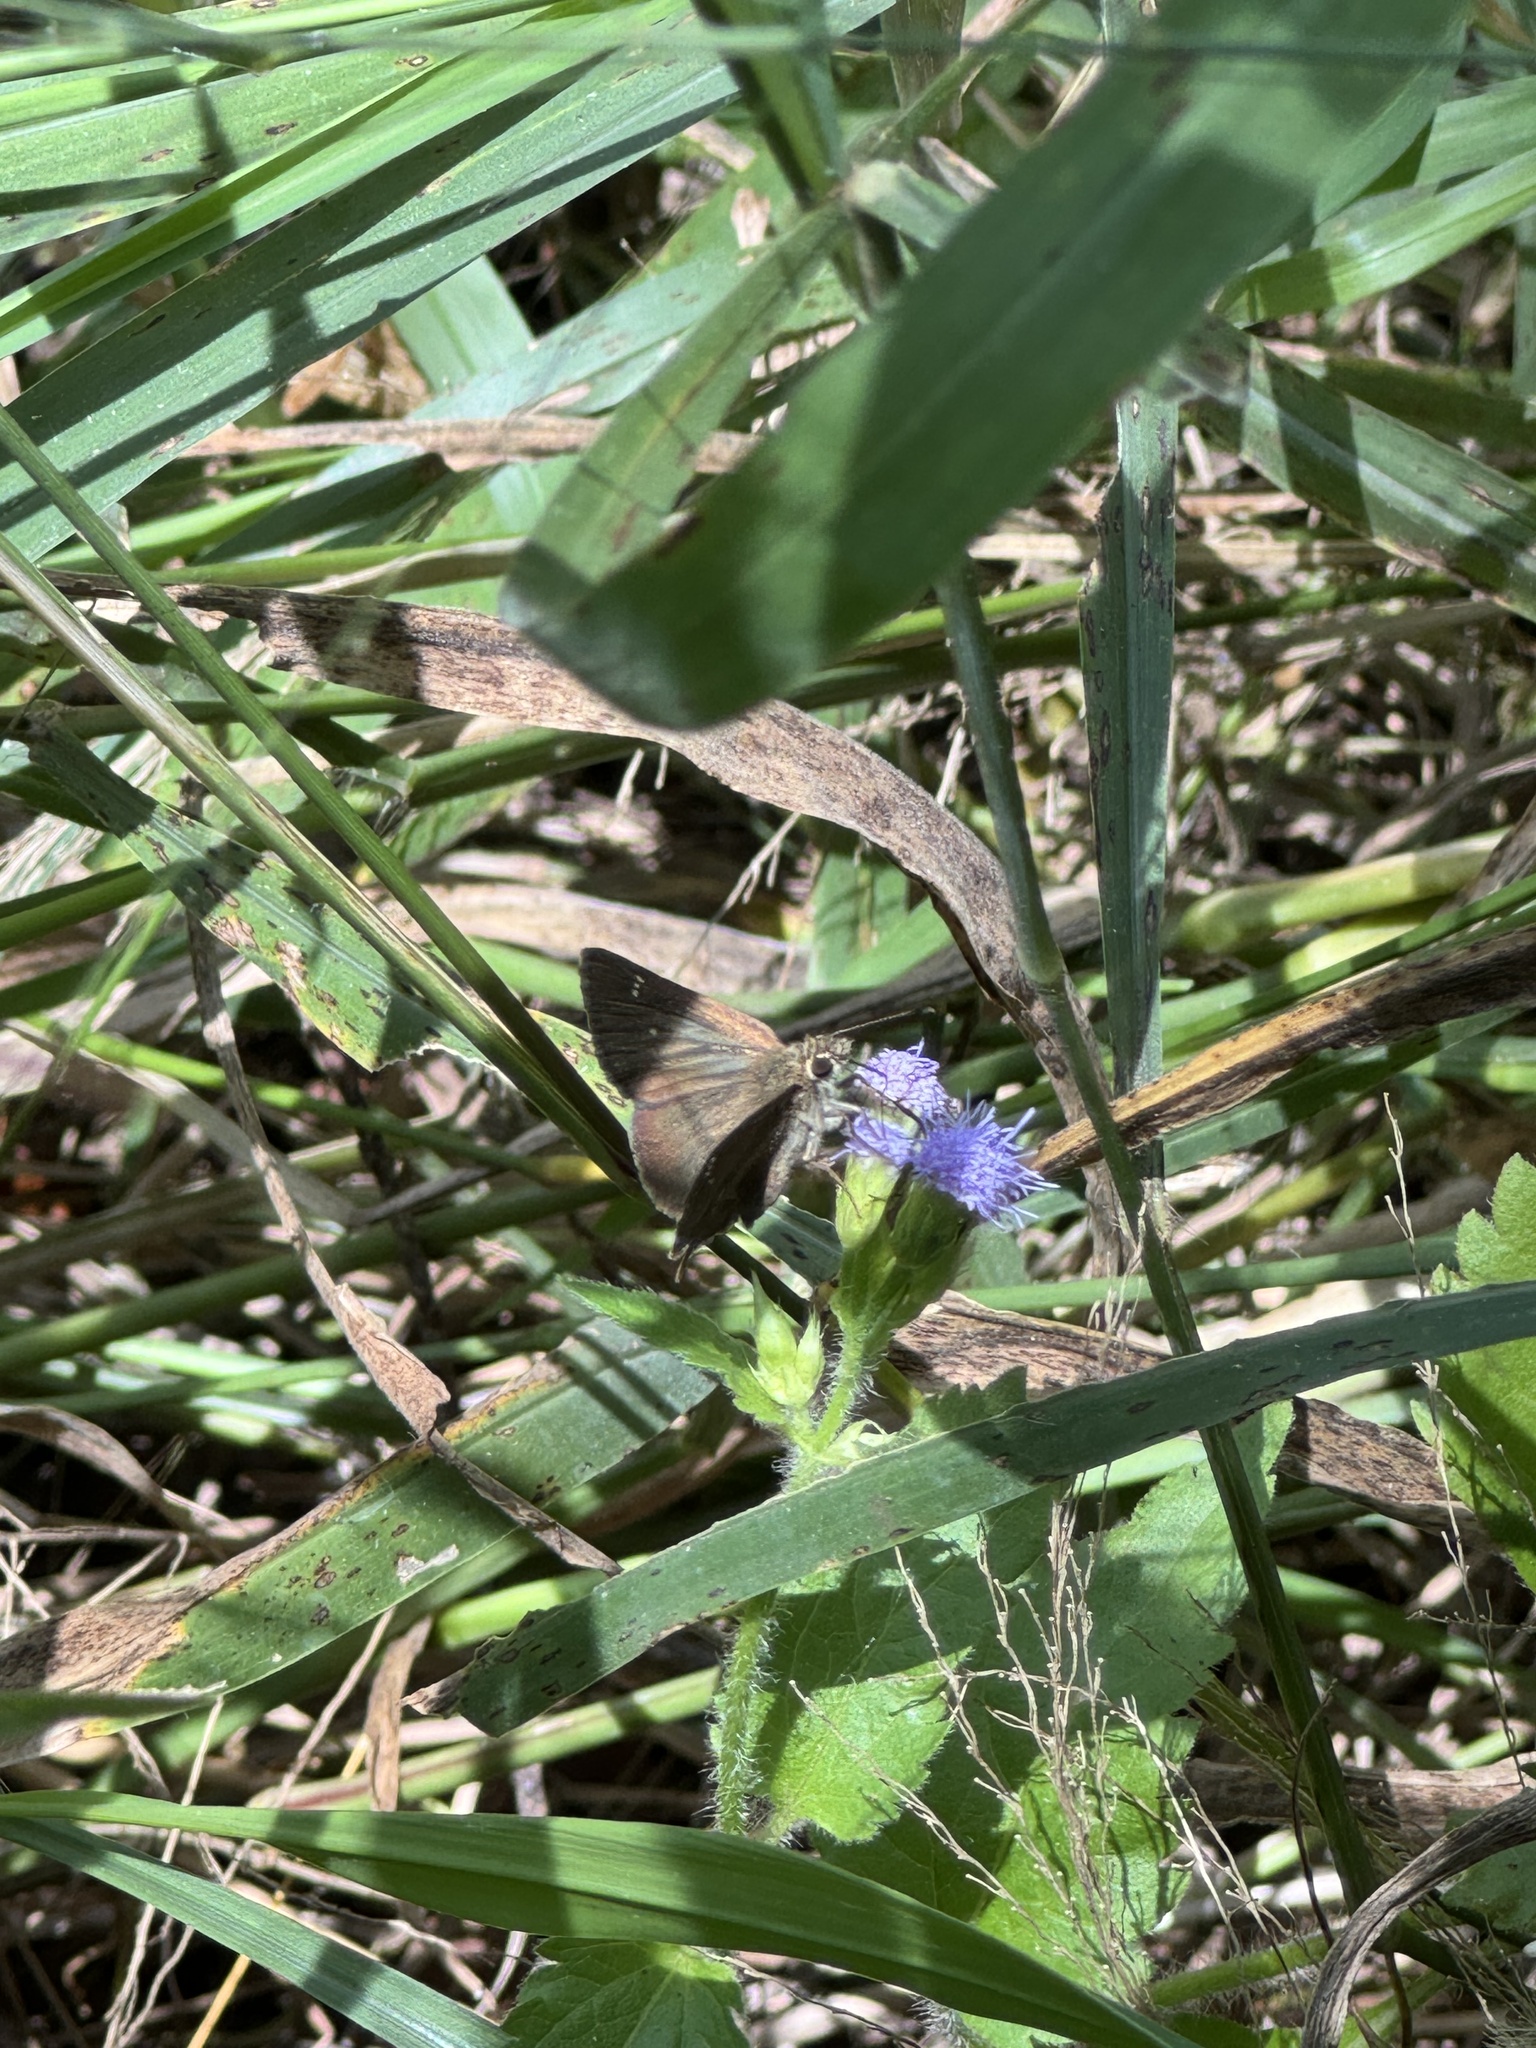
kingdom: Animalia
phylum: Arthropoda
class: Insecta
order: Lepidoptera
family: Hesperiidae
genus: Toxidia
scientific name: Toxidia thyrrhus
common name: Dusky grass-skipper
